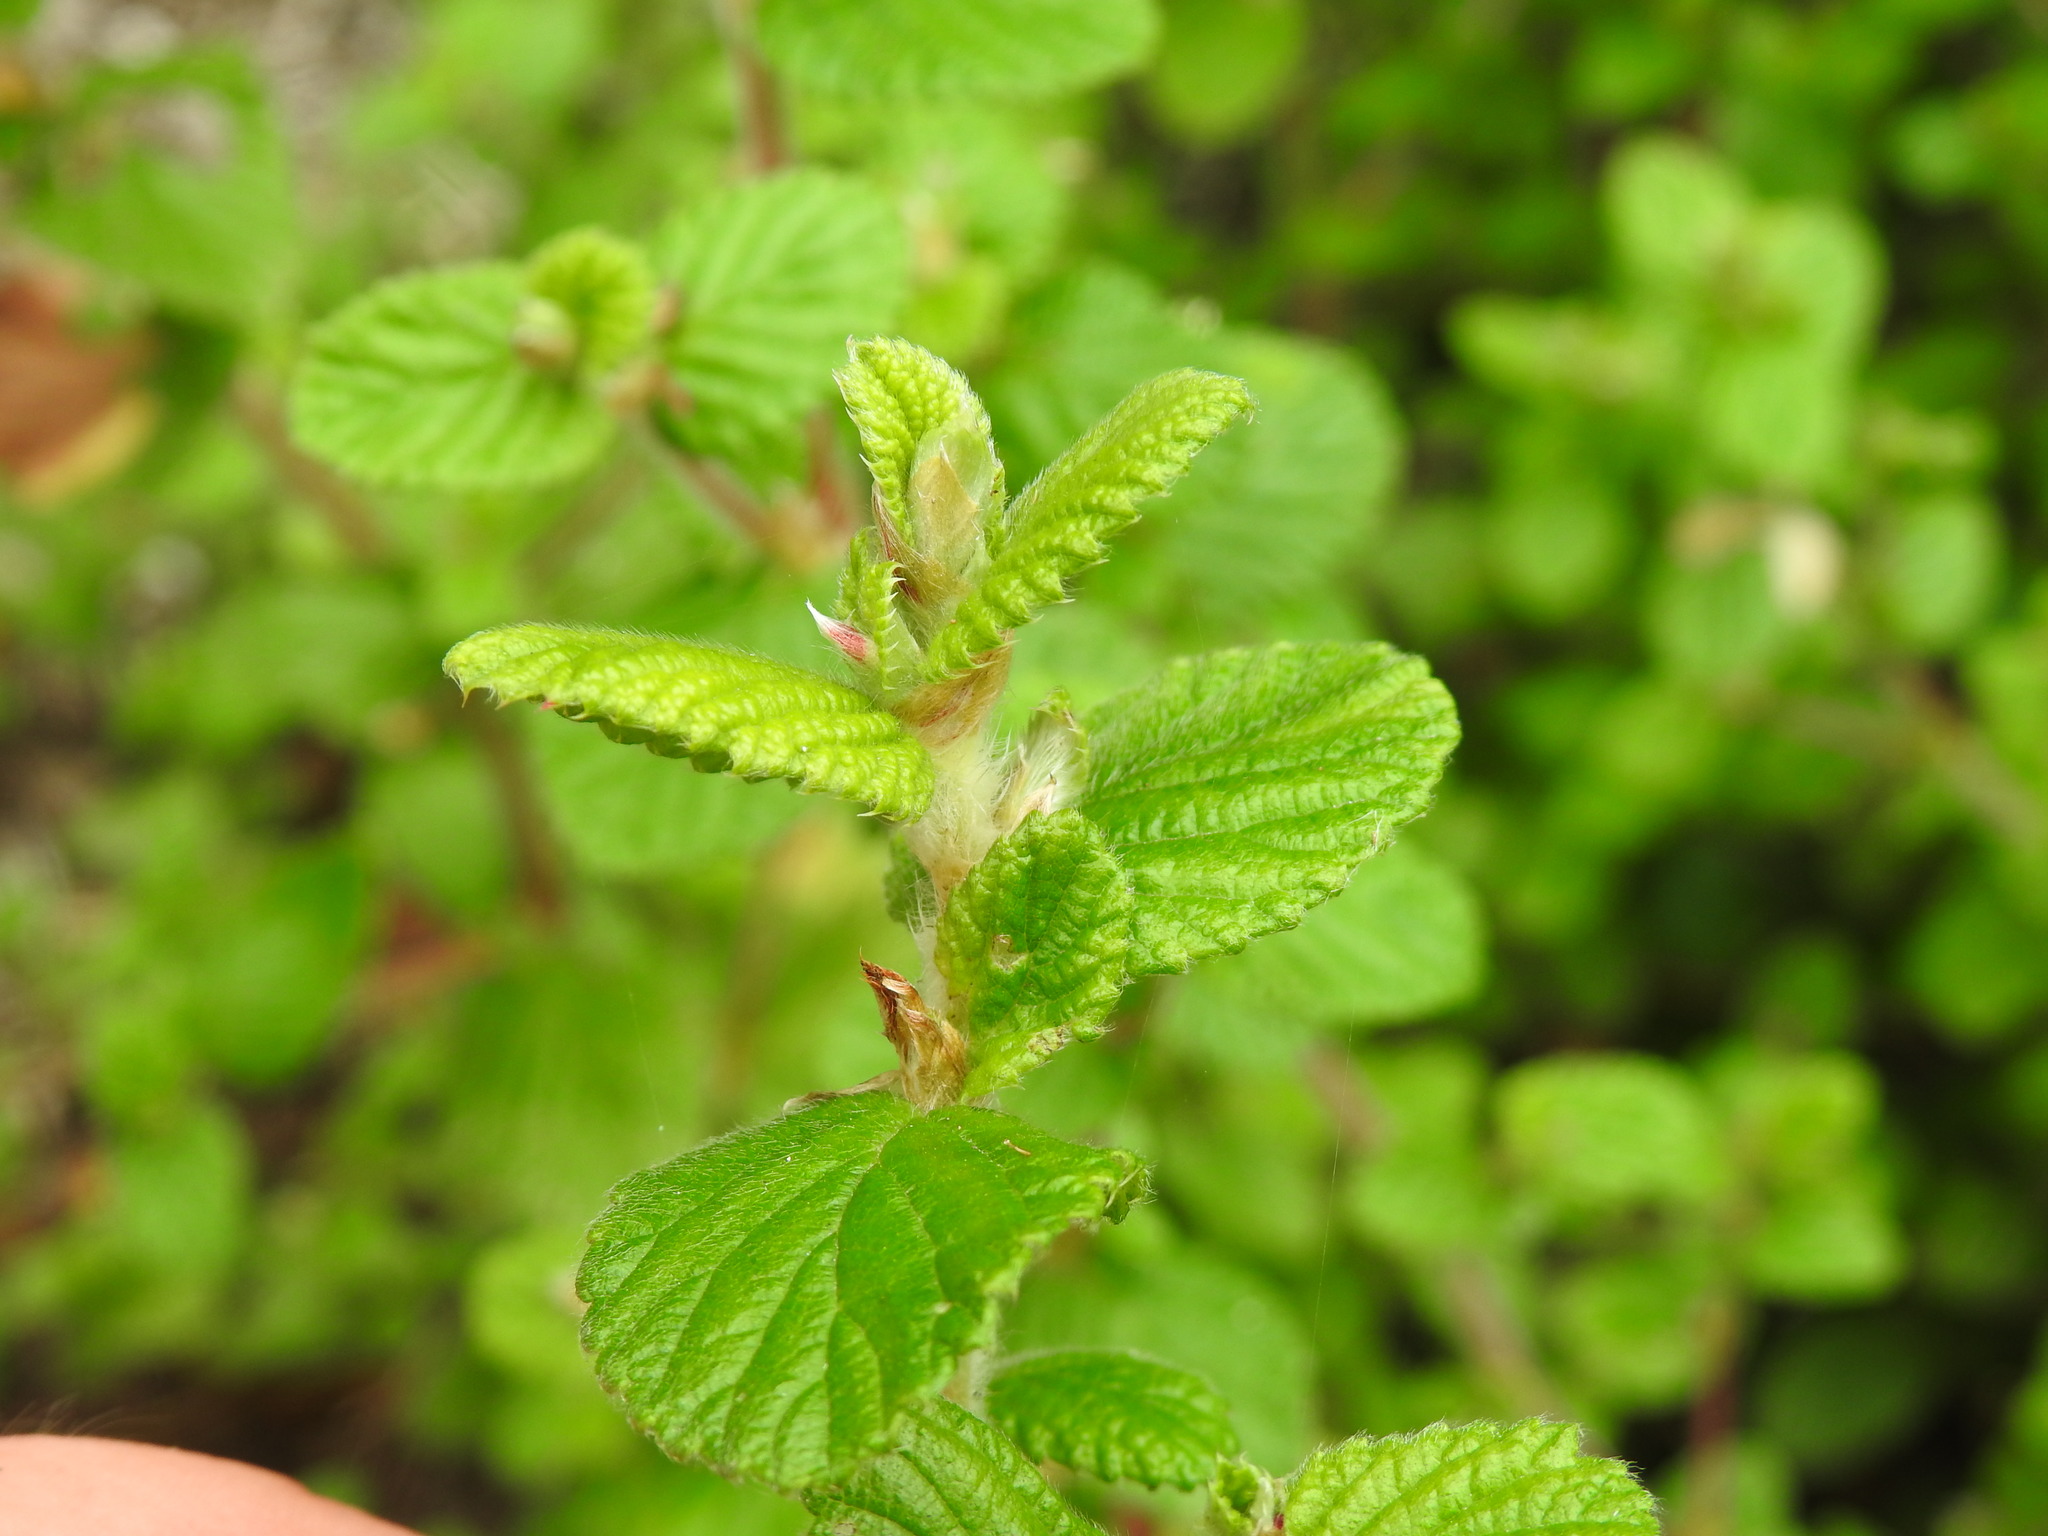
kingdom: Plantae
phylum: Tracheophyta
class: Magnoliopsida
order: Rosales
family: Rosaceae
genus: Cliffortia
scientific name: Cliffortia odorata
